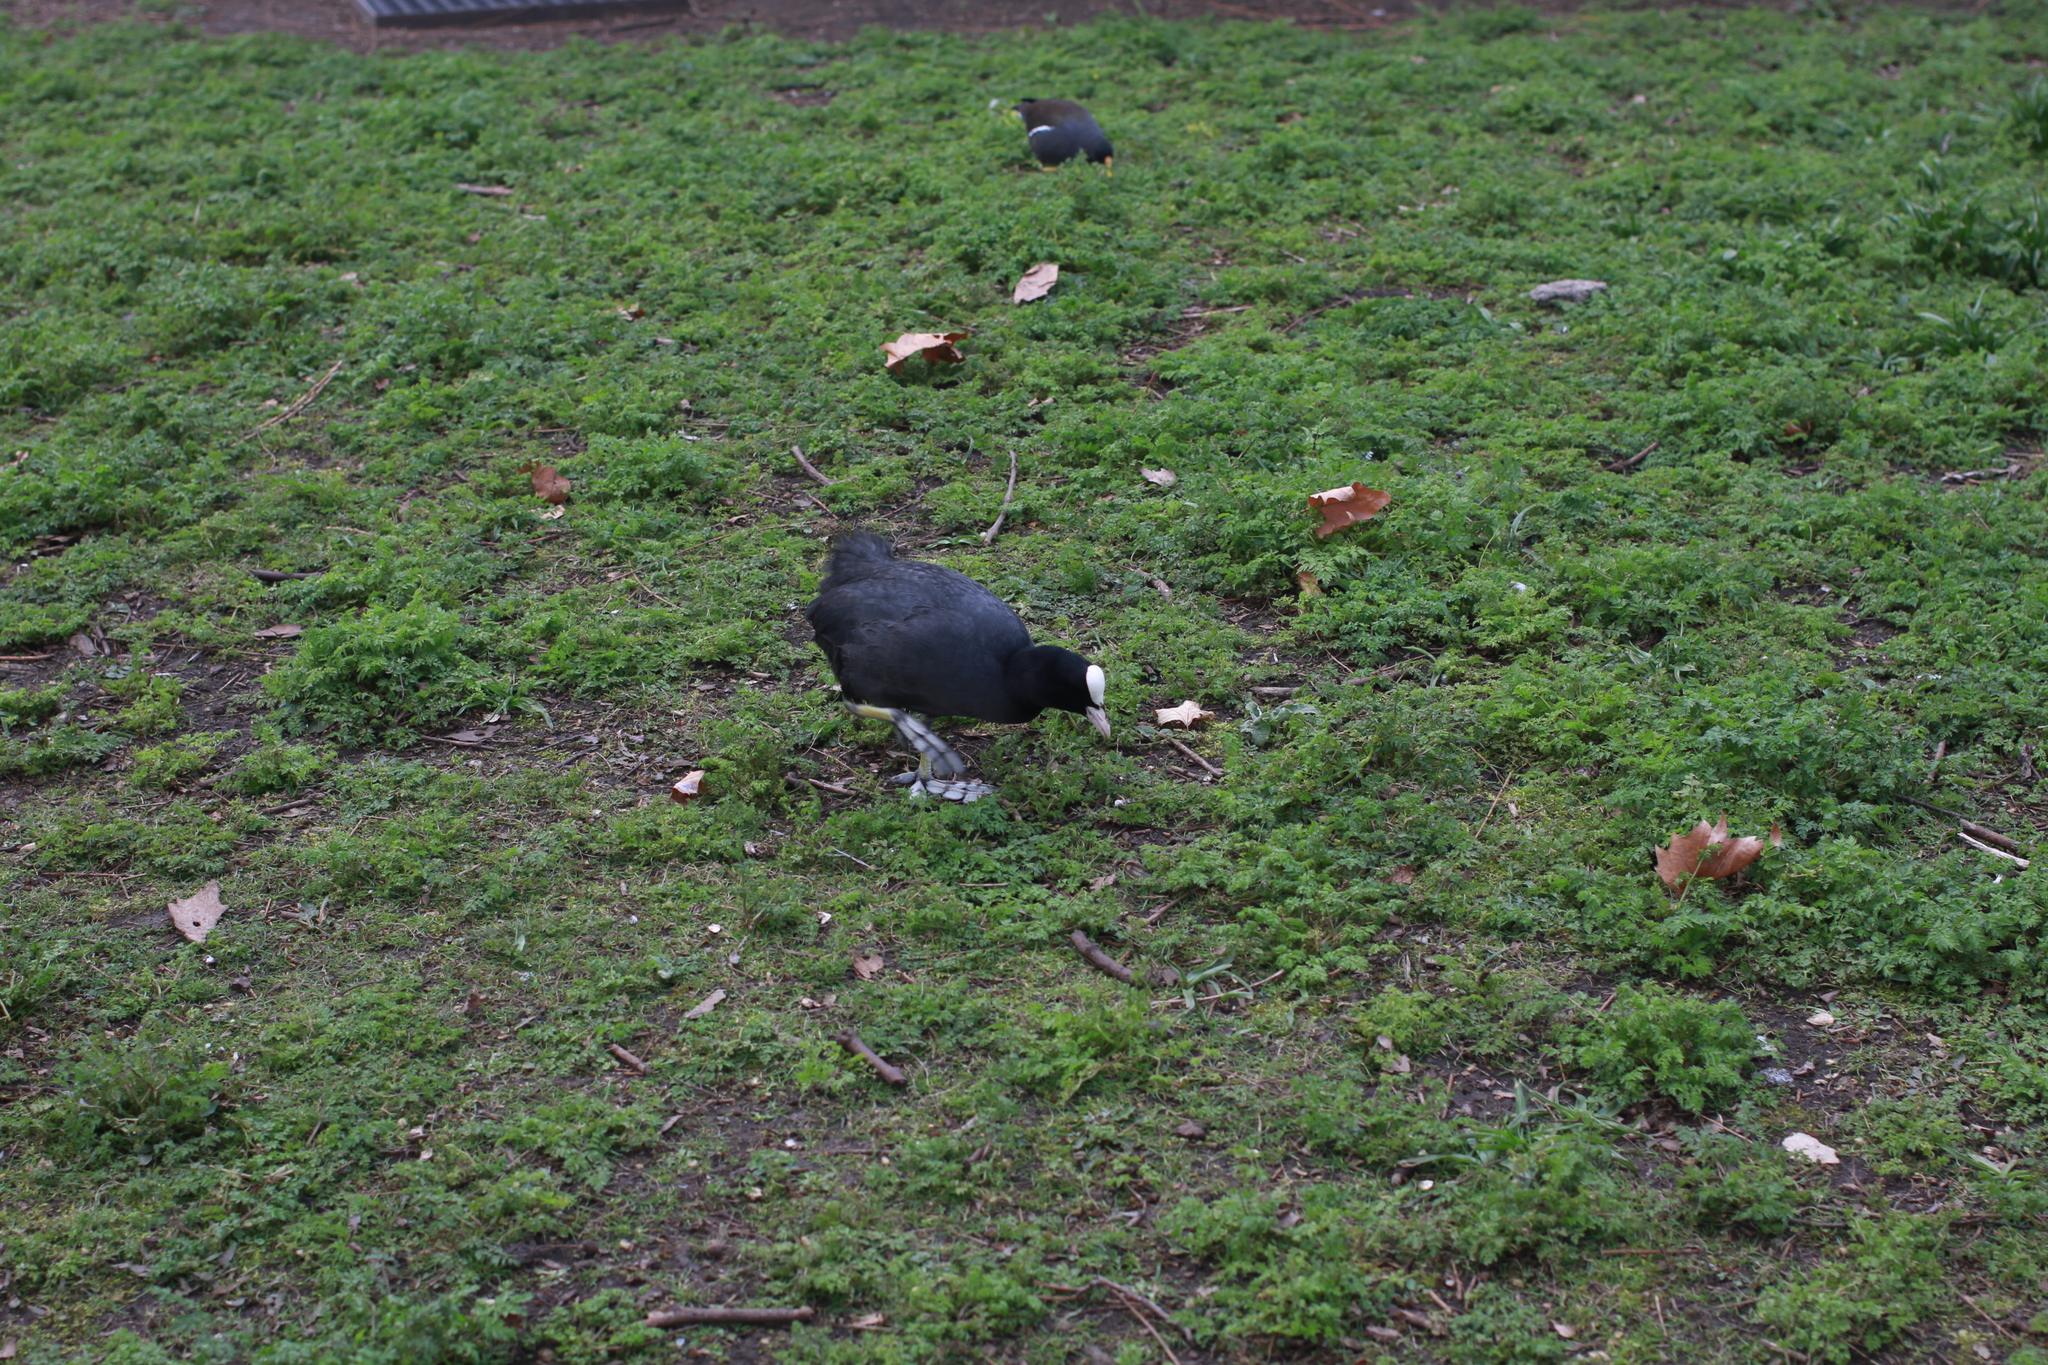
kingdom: Animalia
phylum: Chordata
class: Aves
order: Gruiformes
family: Rallidae
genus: Gallinula
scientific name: Gallinula chloropus
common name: Common moorhen
